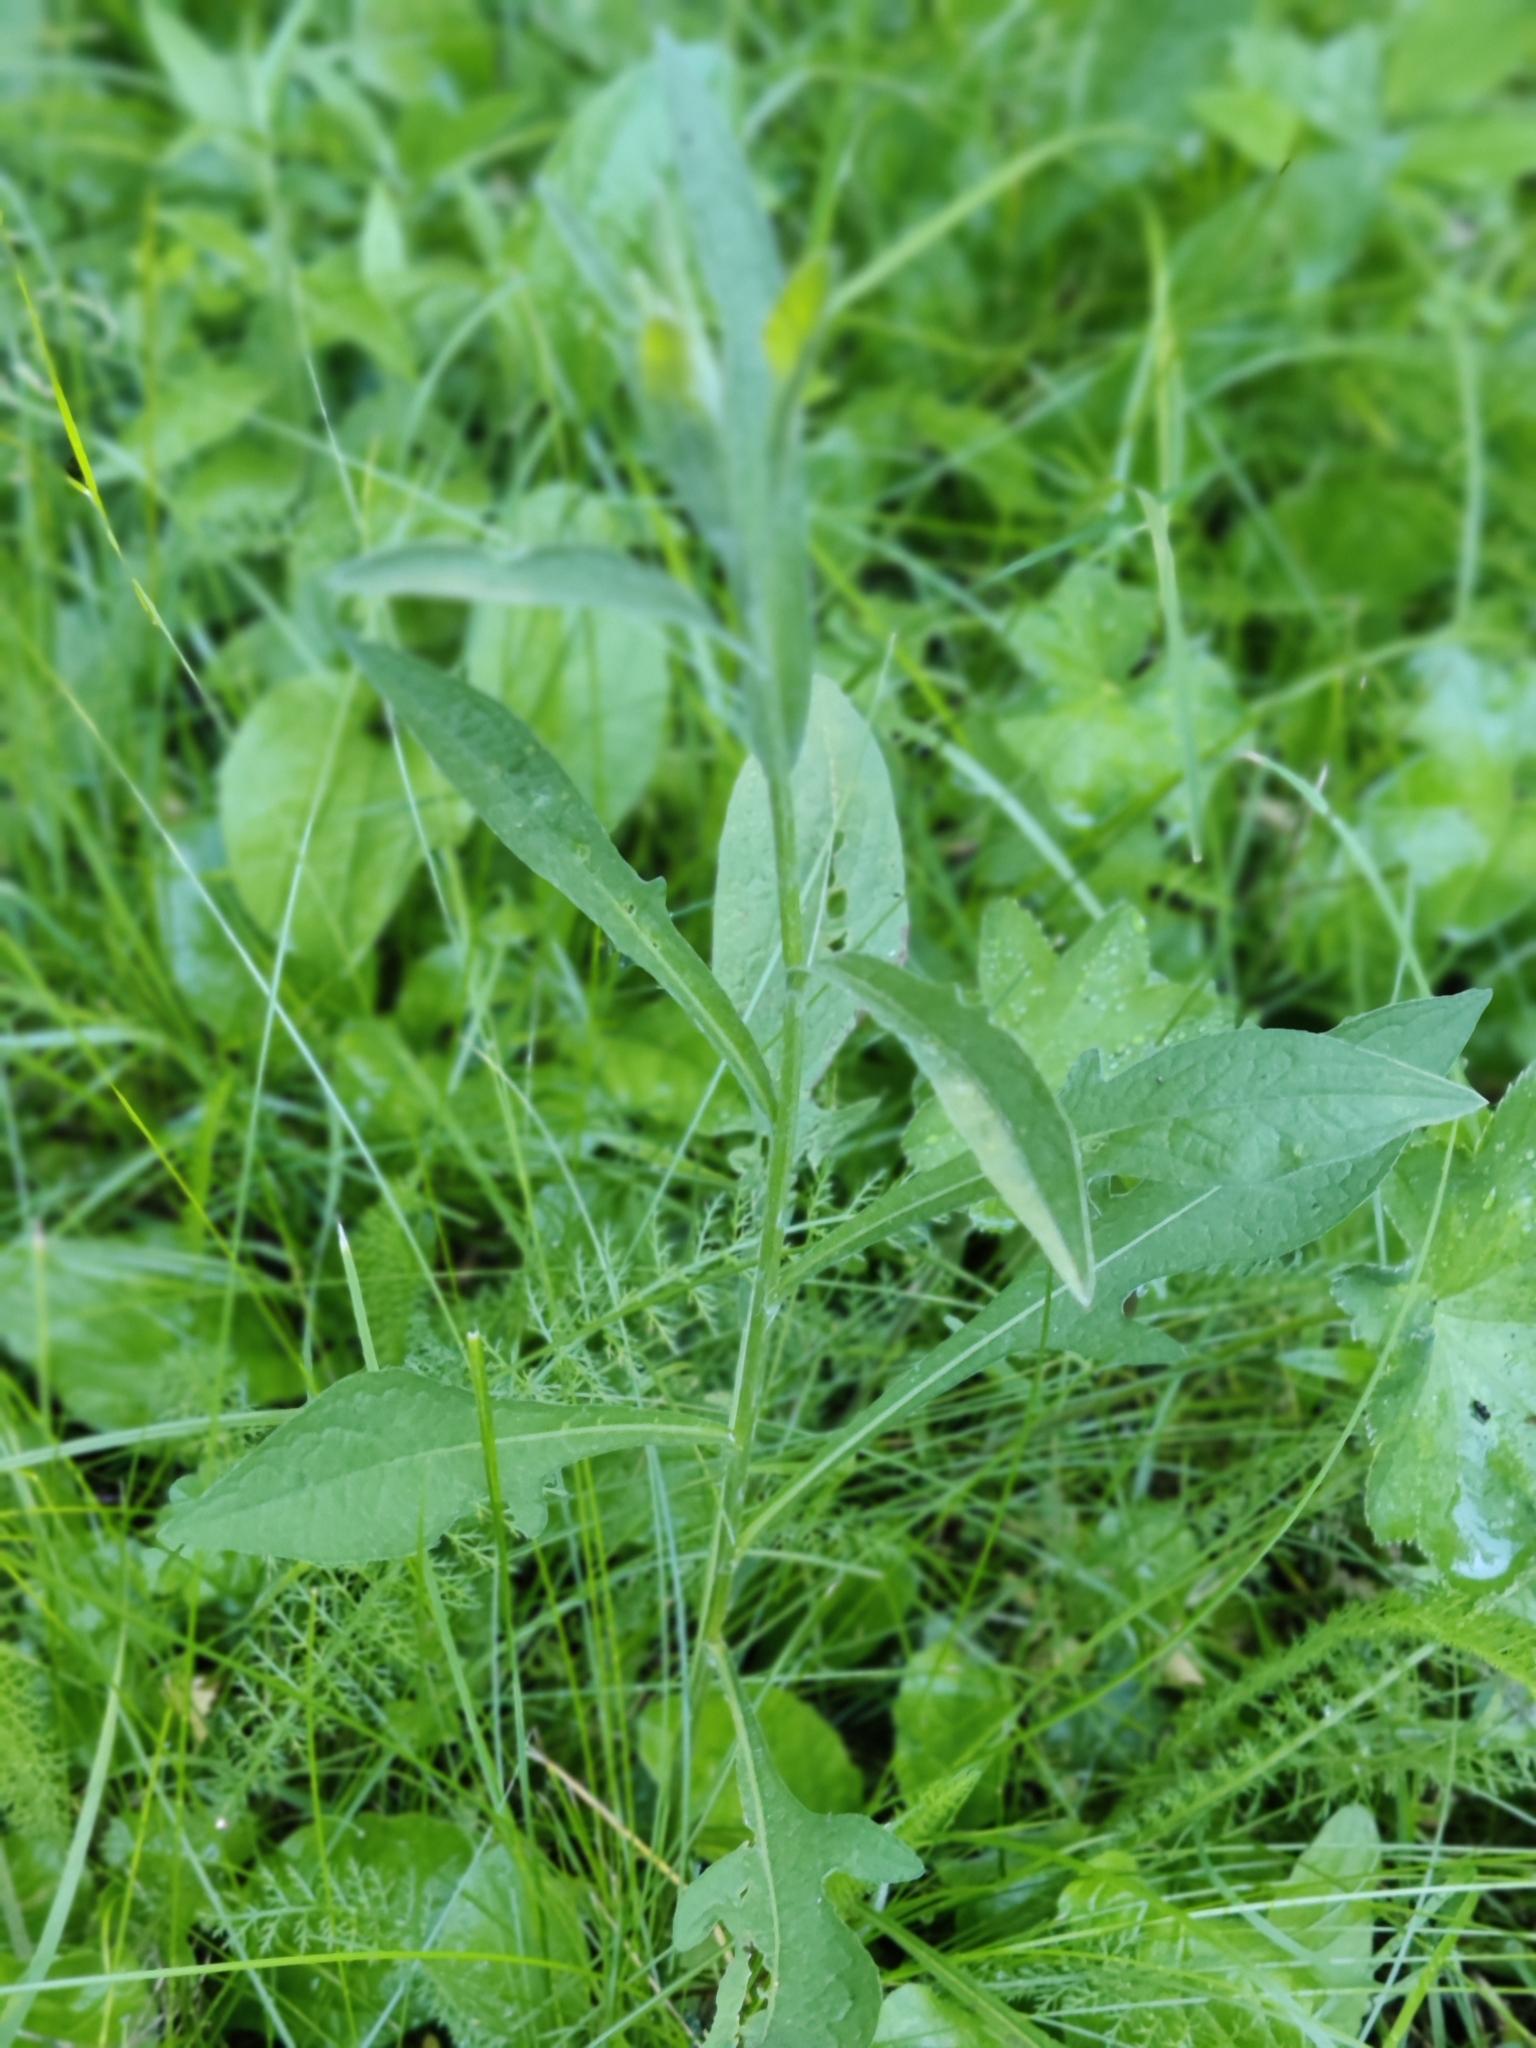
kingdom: Plantae
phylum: Tracheophyta
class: Magnoliopsida
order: Asterales
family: Asteraceae
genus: Centaurea
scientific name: Centaurea jacea
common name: Brown knapweed
